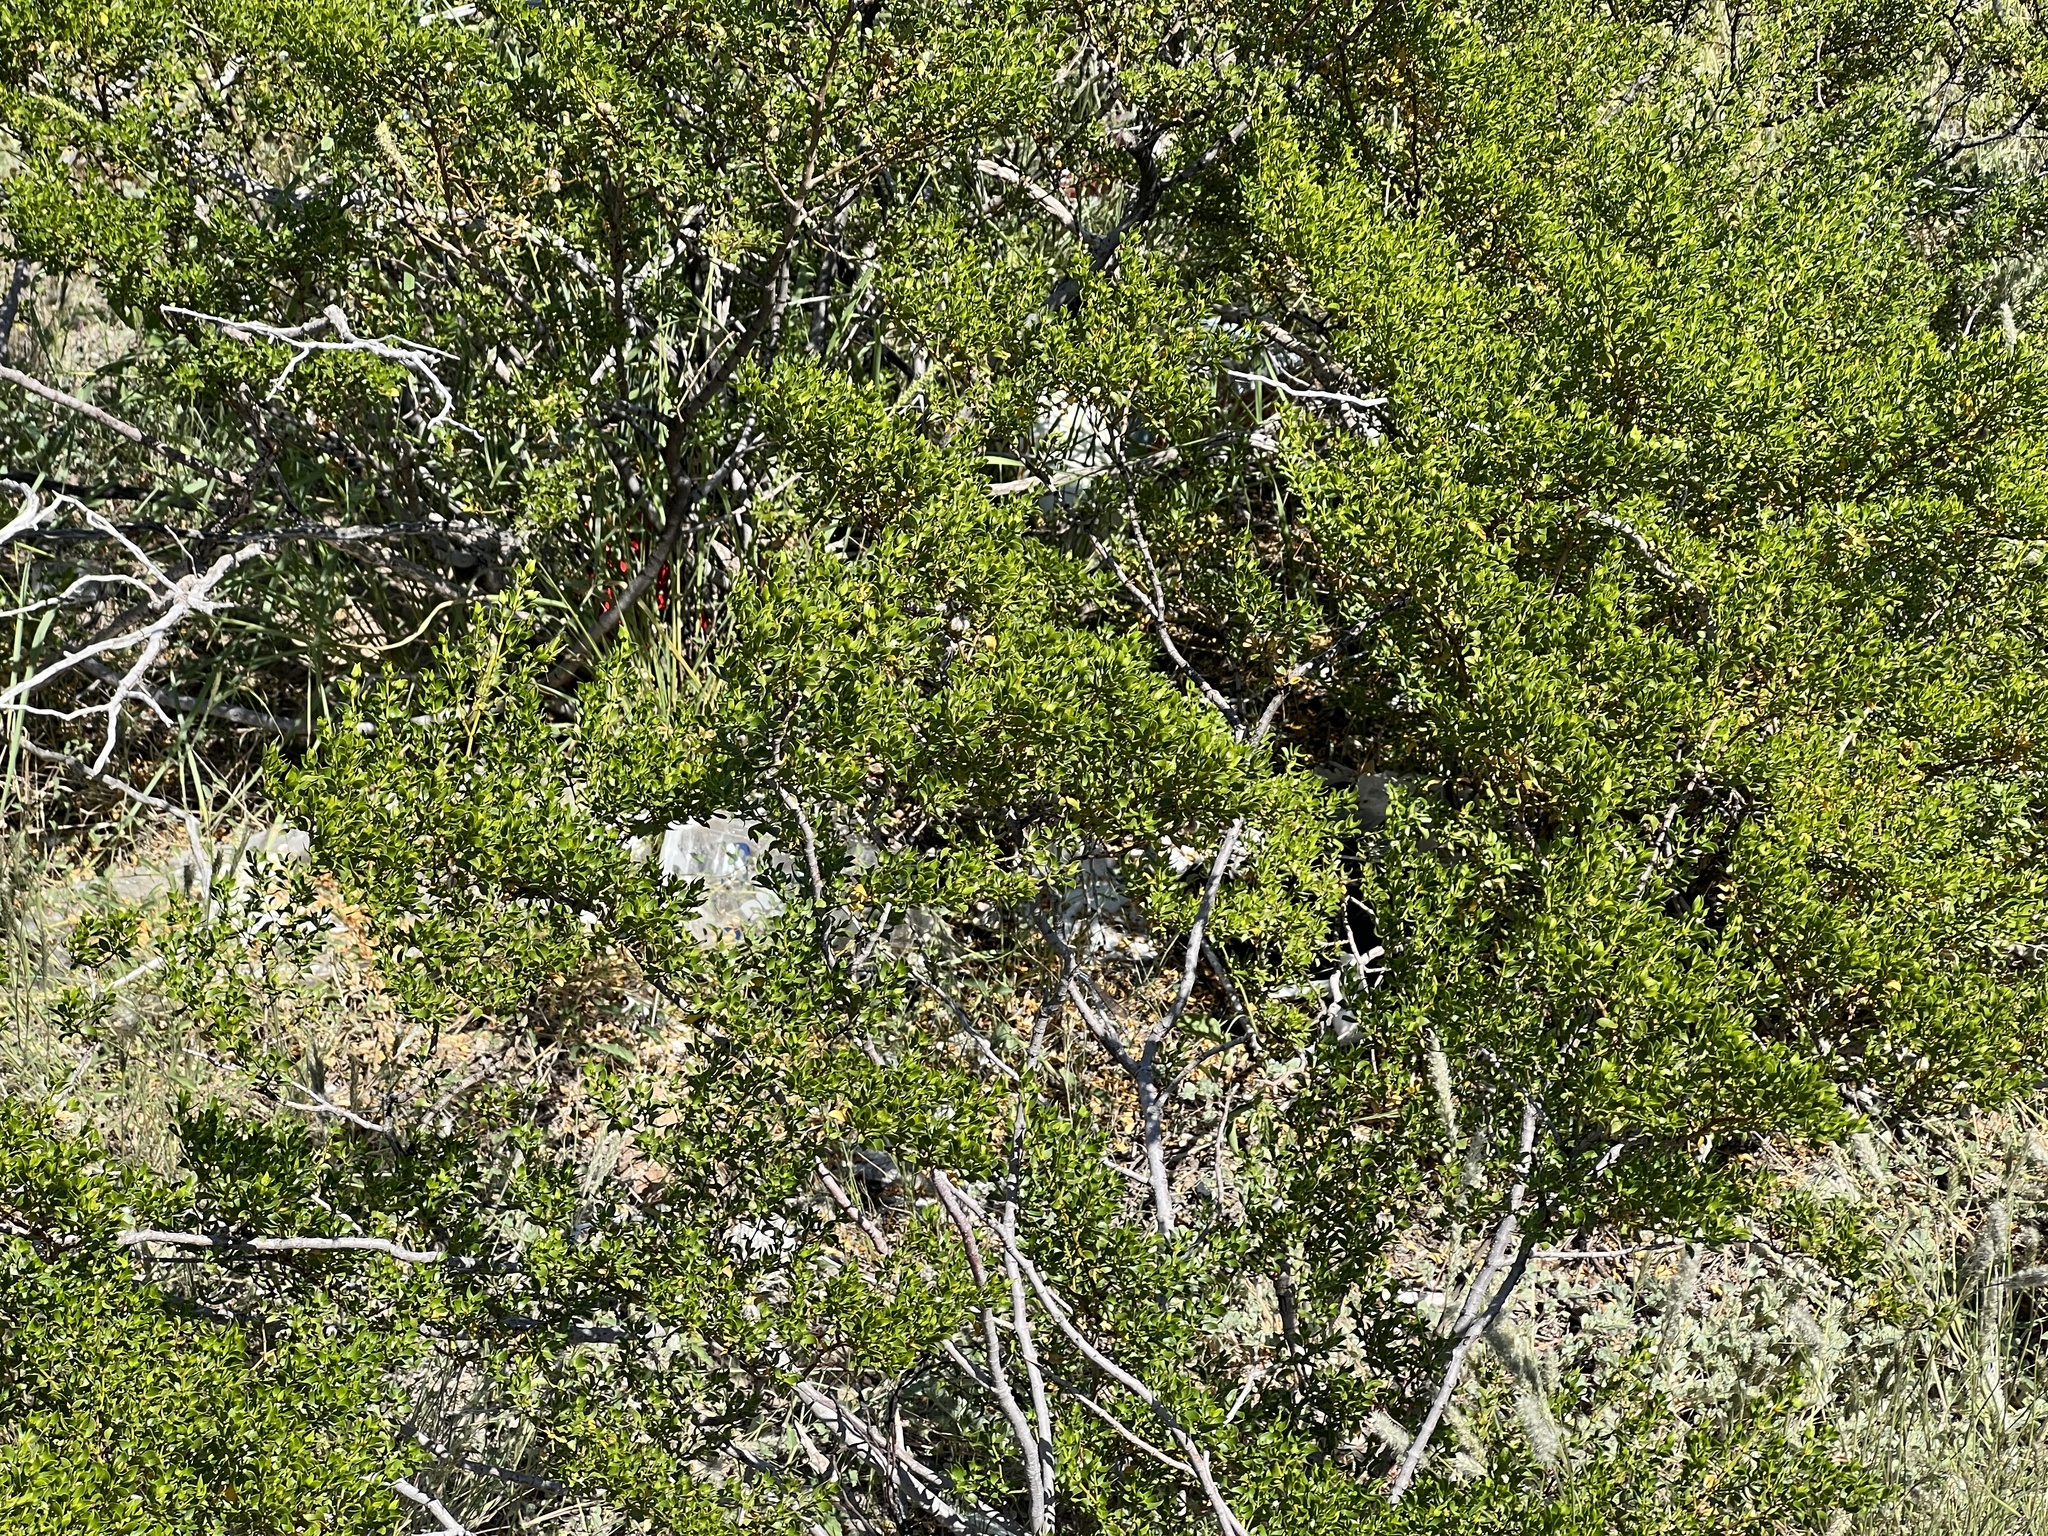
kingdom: Plantae
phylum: Tracheophyta
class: Magnoliopsida
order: Zygophyllales
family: Zygophyllaceae
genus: Larrea
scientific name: Larrea tridentata
